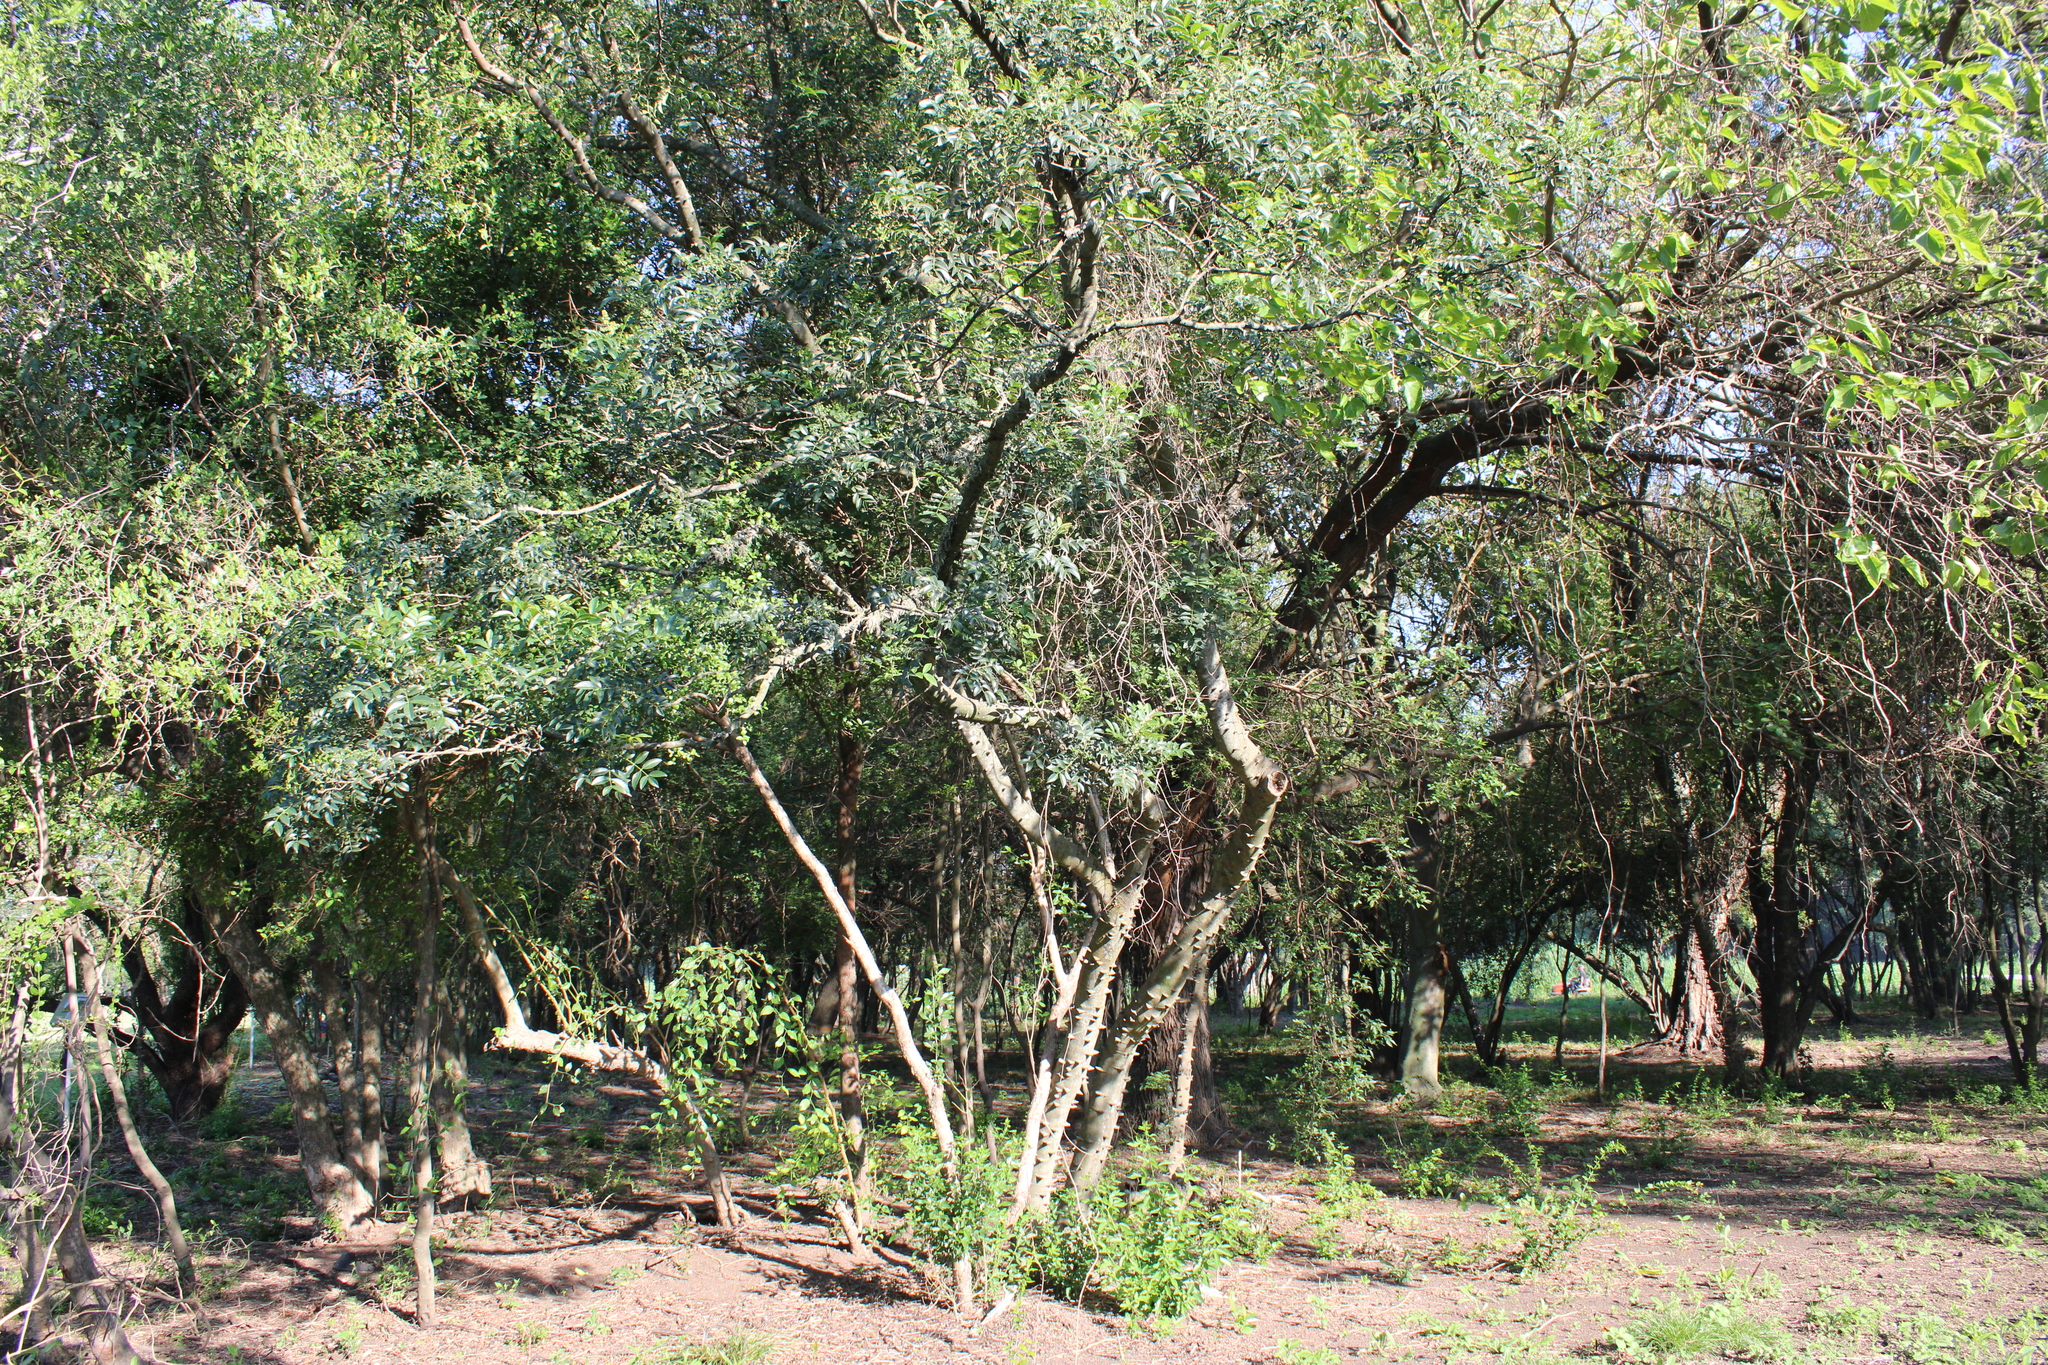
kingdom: Plantae
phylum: Tracheophyta
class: Magnoliopsida
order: Sapindales
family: Rutaceae
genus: Zanthoxylum
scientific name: Zanthoxylum rhoifolium
